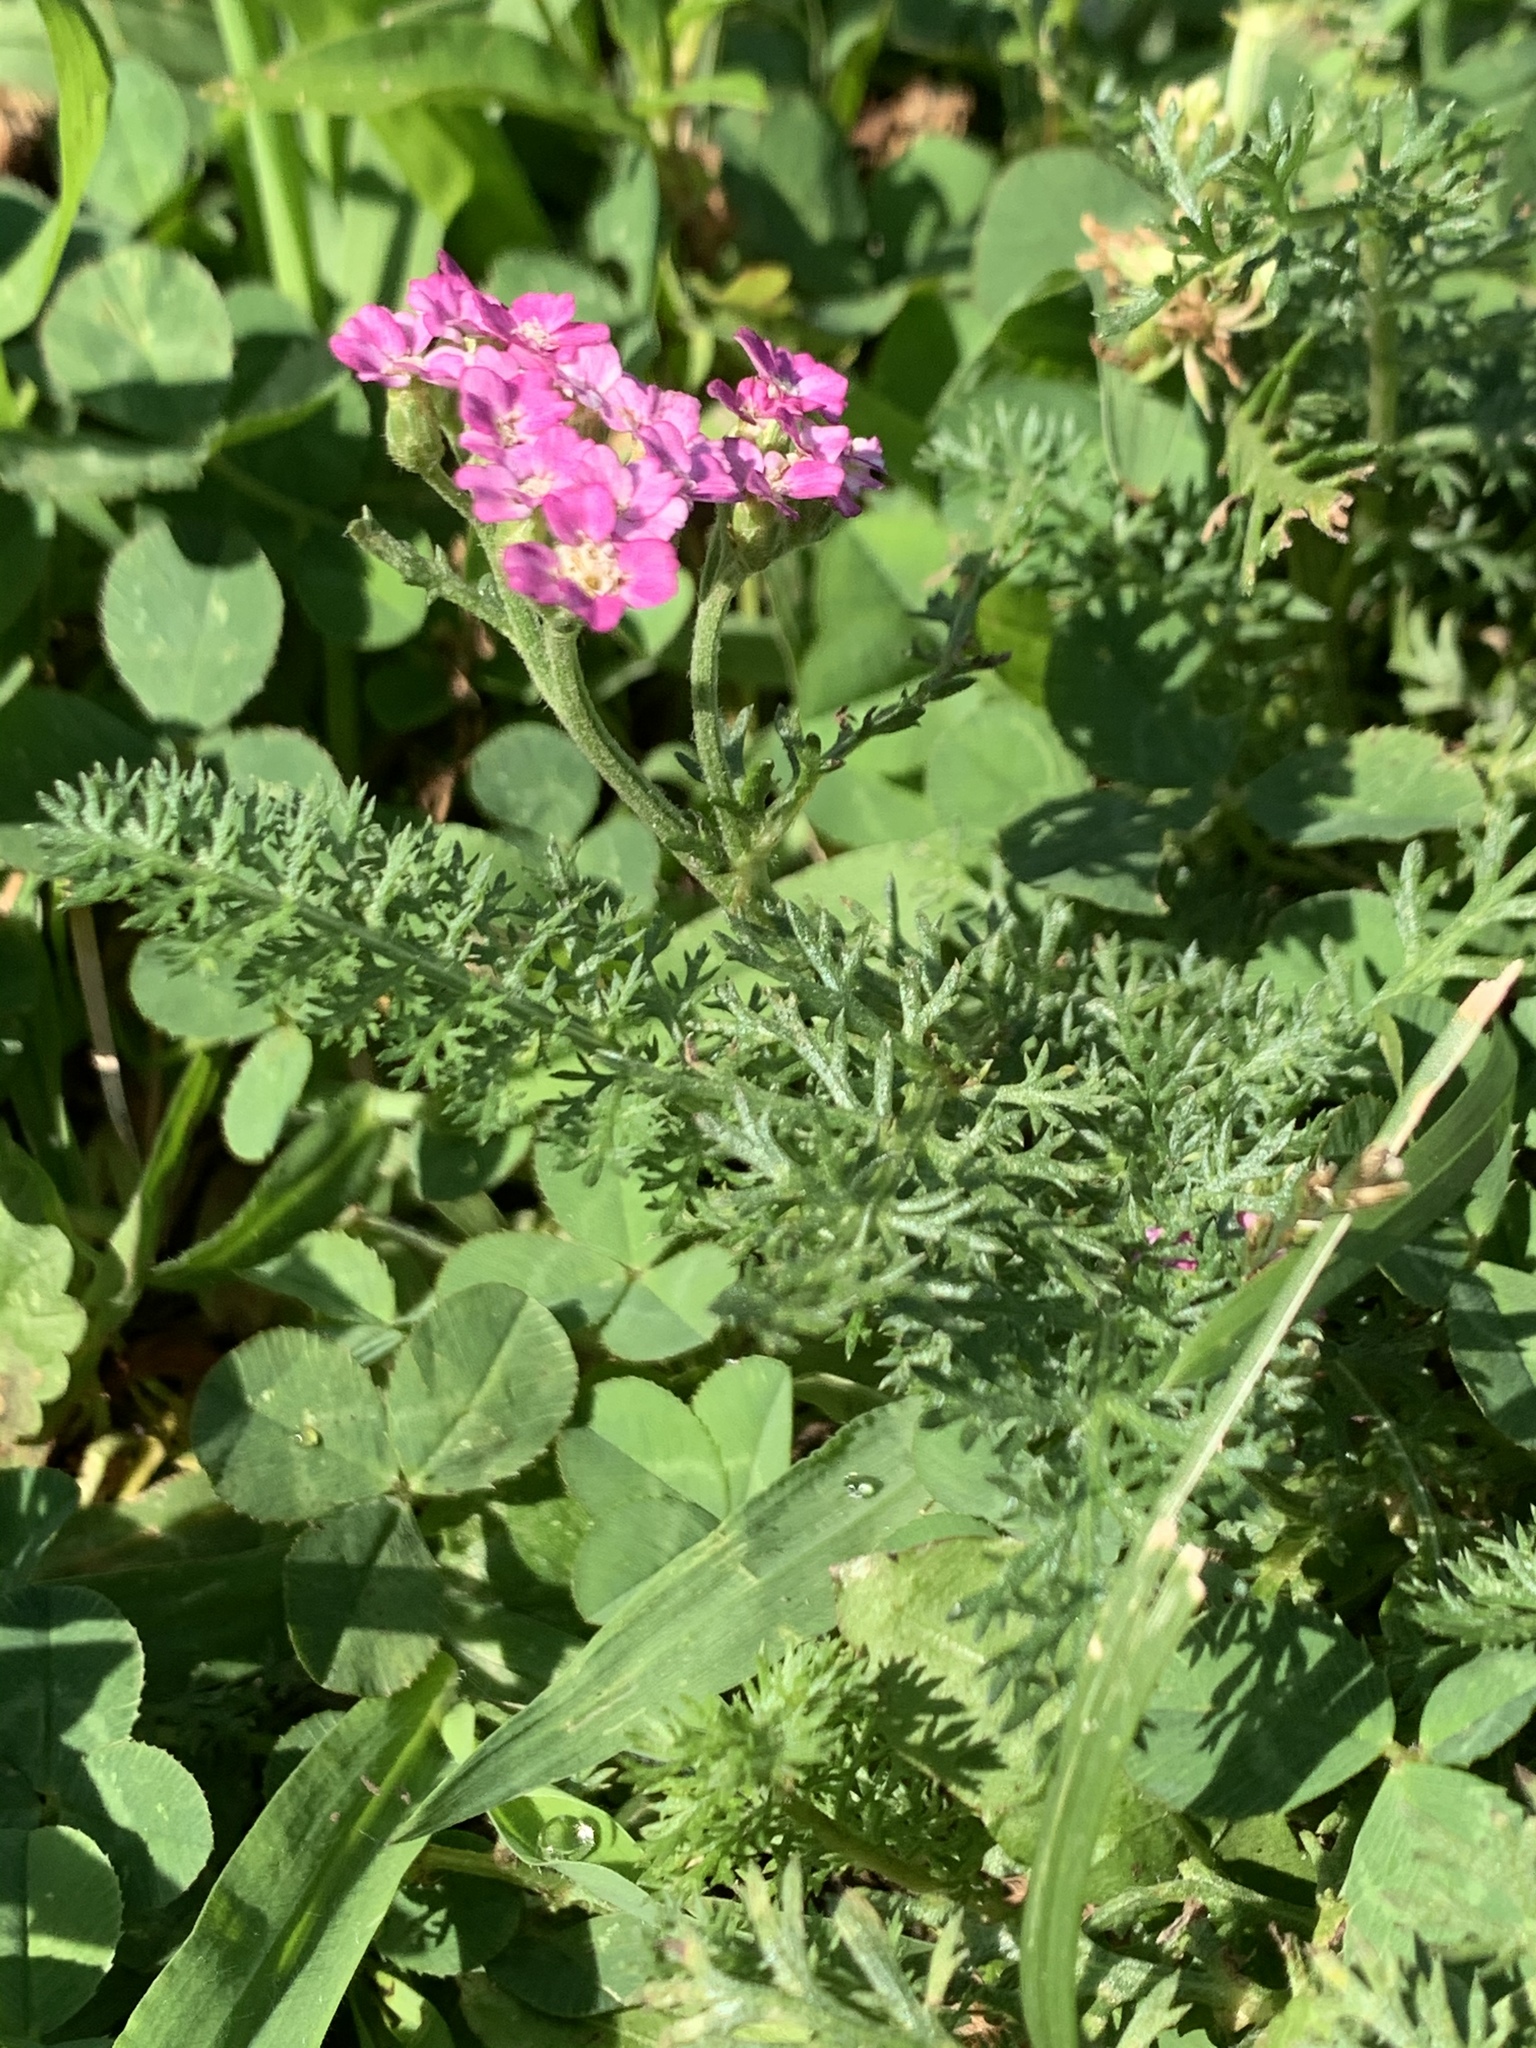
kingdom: Plantae
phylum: Tracheophyta
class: Magnoliopsida
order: Asterales
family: Asteraceae
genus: Achillea
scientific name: Achillea millefolium
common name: Yarrow
